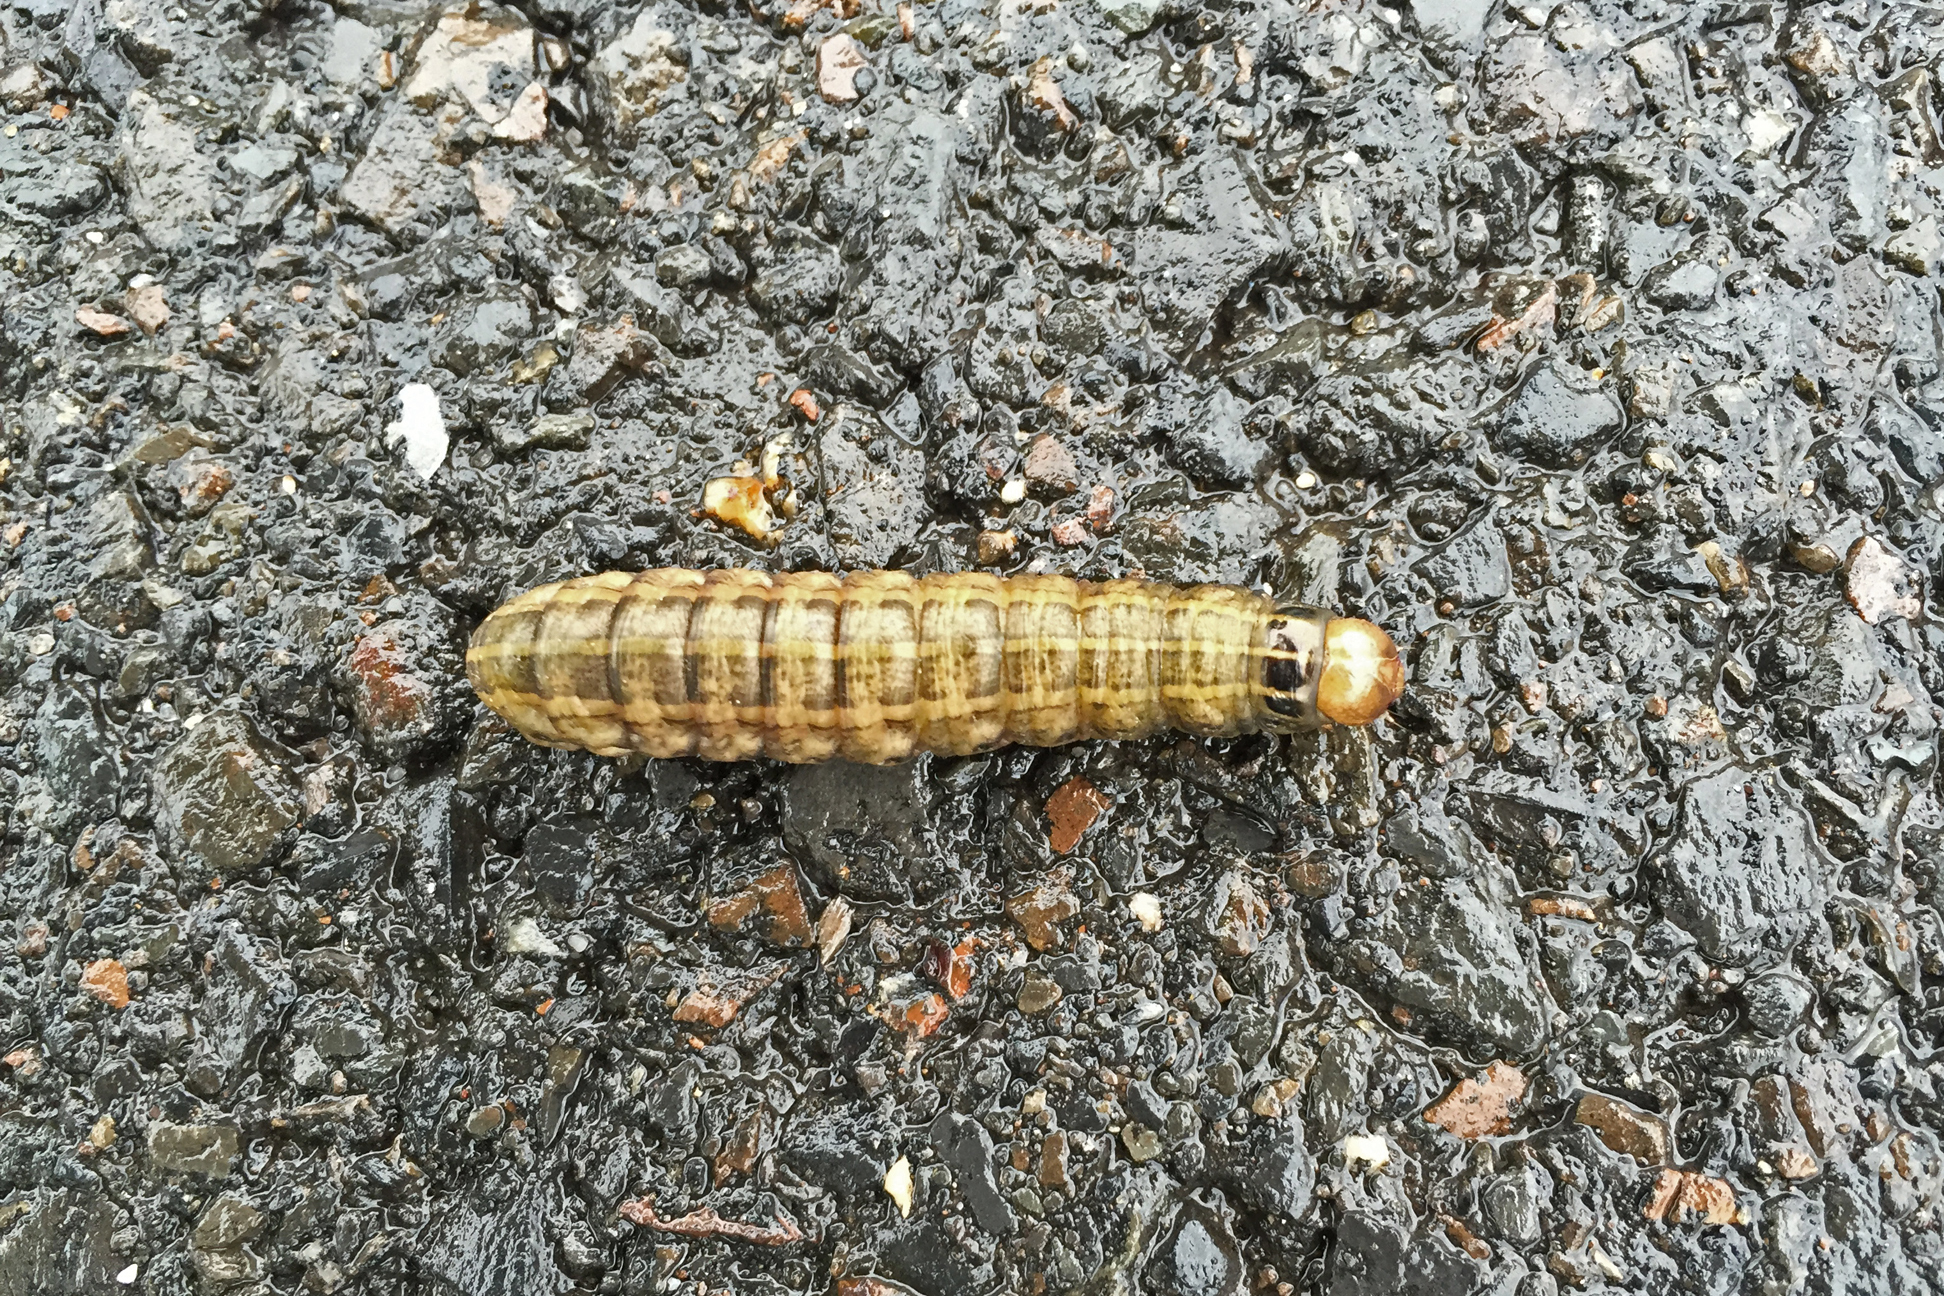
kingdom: Animalia
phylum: Arthropoda
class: Insecta
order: Lepidoptera
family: Noctuidae
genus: Nephelodes
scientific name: Nephelodes minians
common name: Bronzed cutworm
